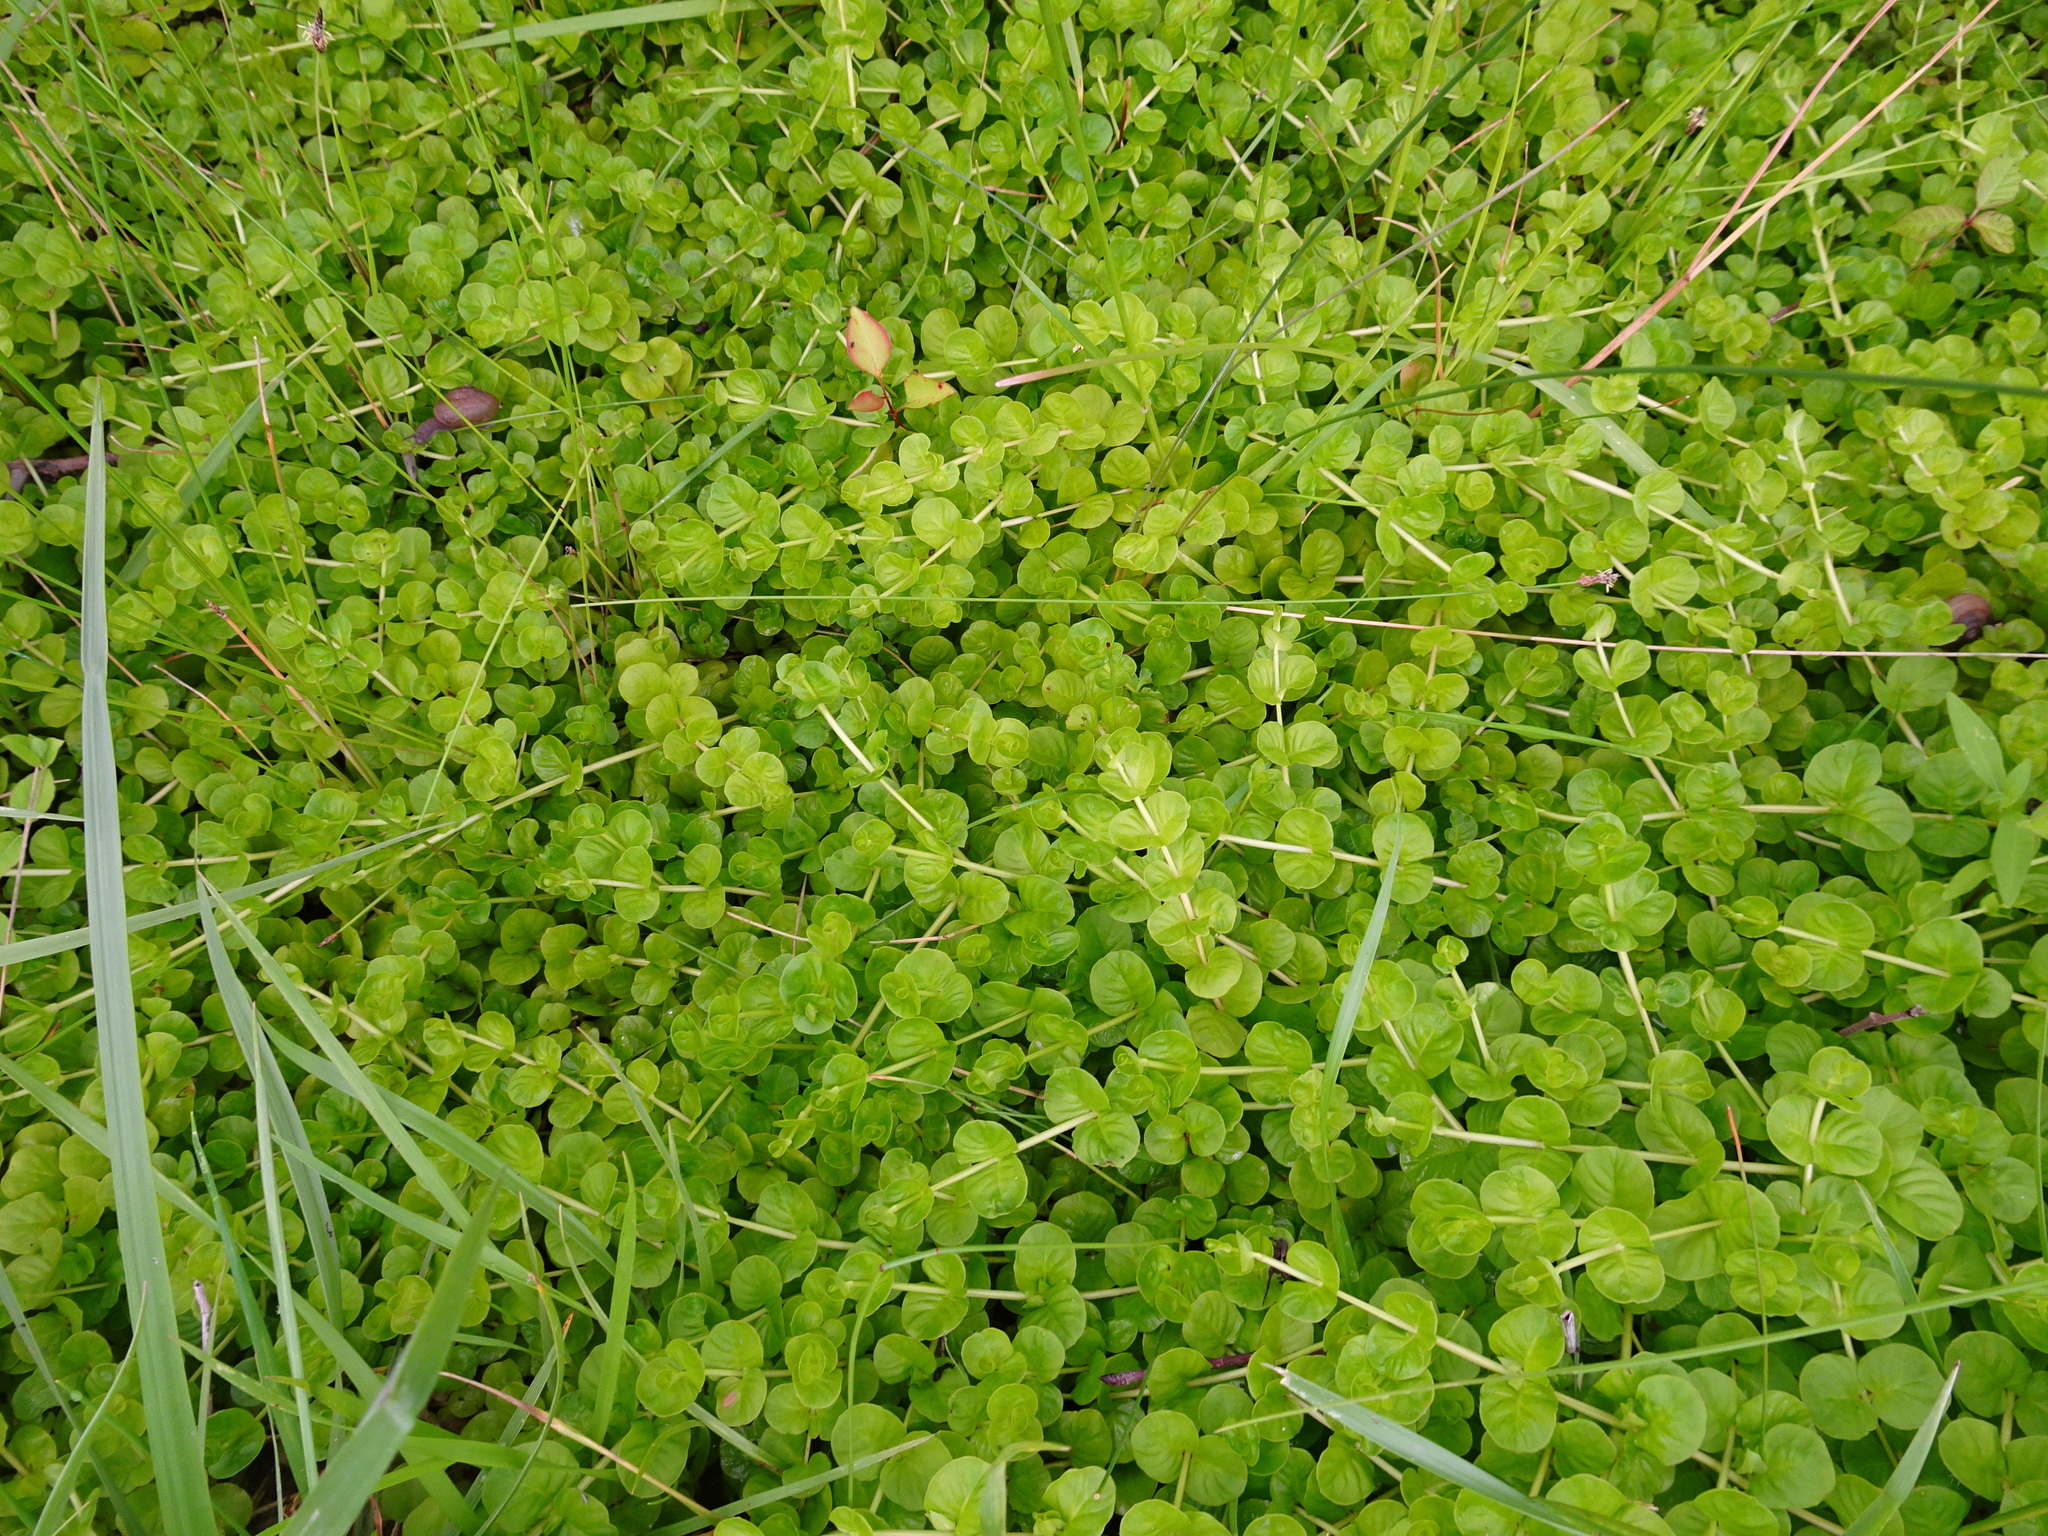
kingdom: Plantae
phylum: Tracheophyta
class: Magnoliopsida
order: Ericales
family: Primulaceae
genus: Lysimachia
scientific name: Lysimachia nummularia
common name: Moneywort
